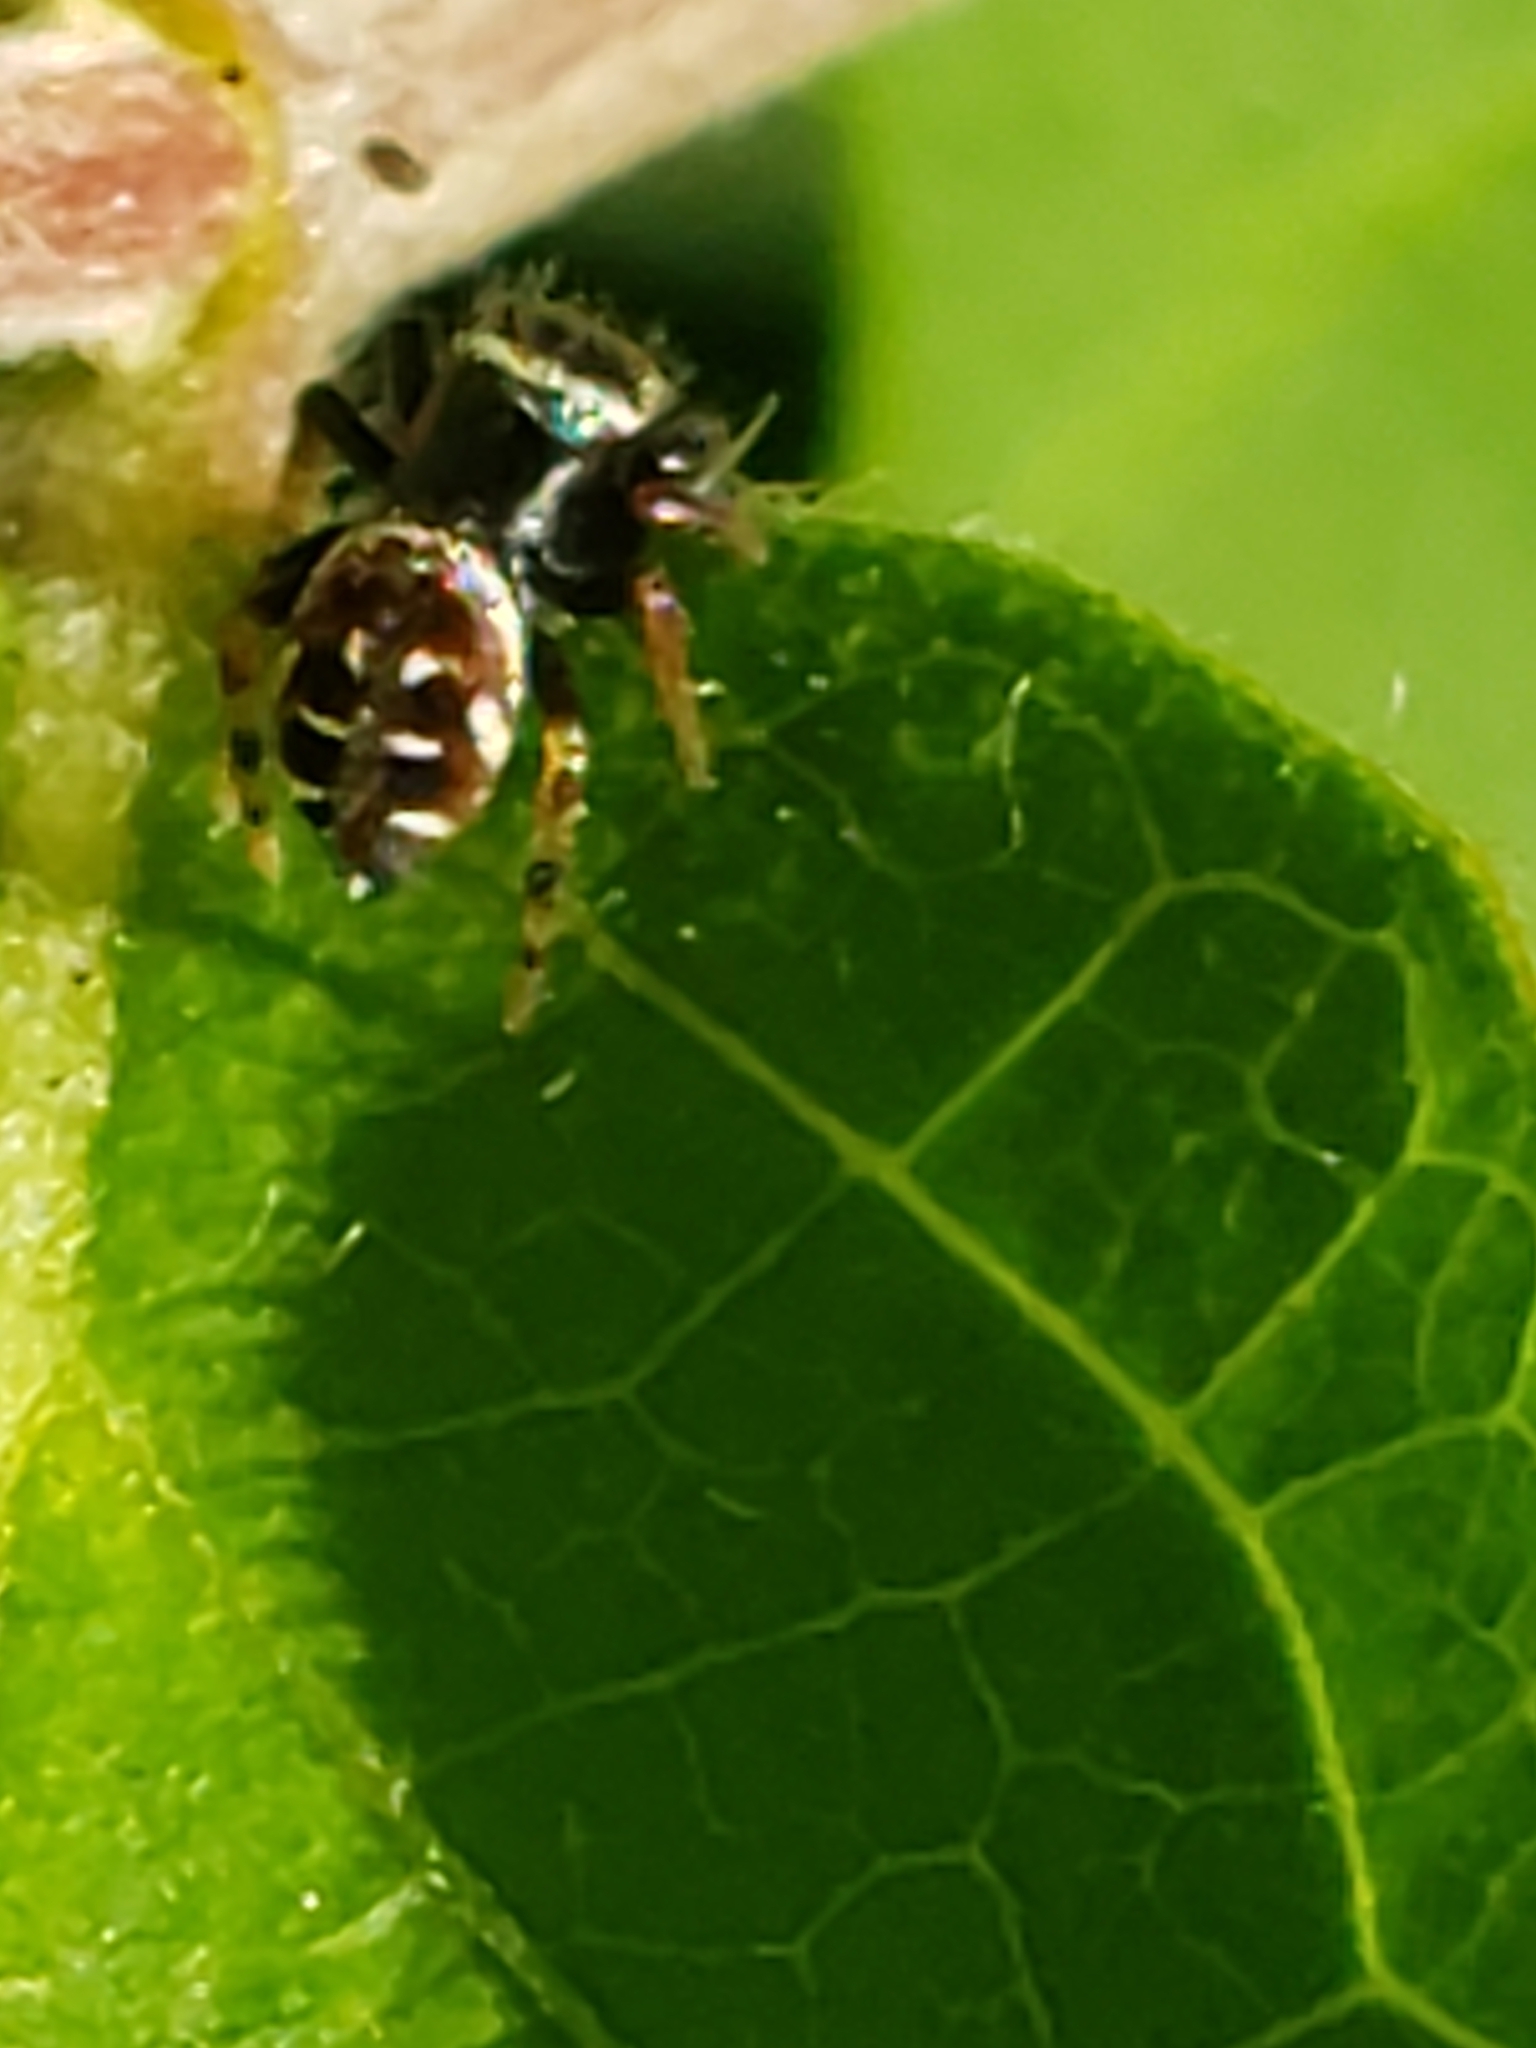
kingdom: Animalia
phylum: Arthropoda
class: Arachnida
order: Araneae
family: Salticidae
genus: Paraphidippus
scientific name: Paraphidippus aurantius
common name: Jumping spiders
